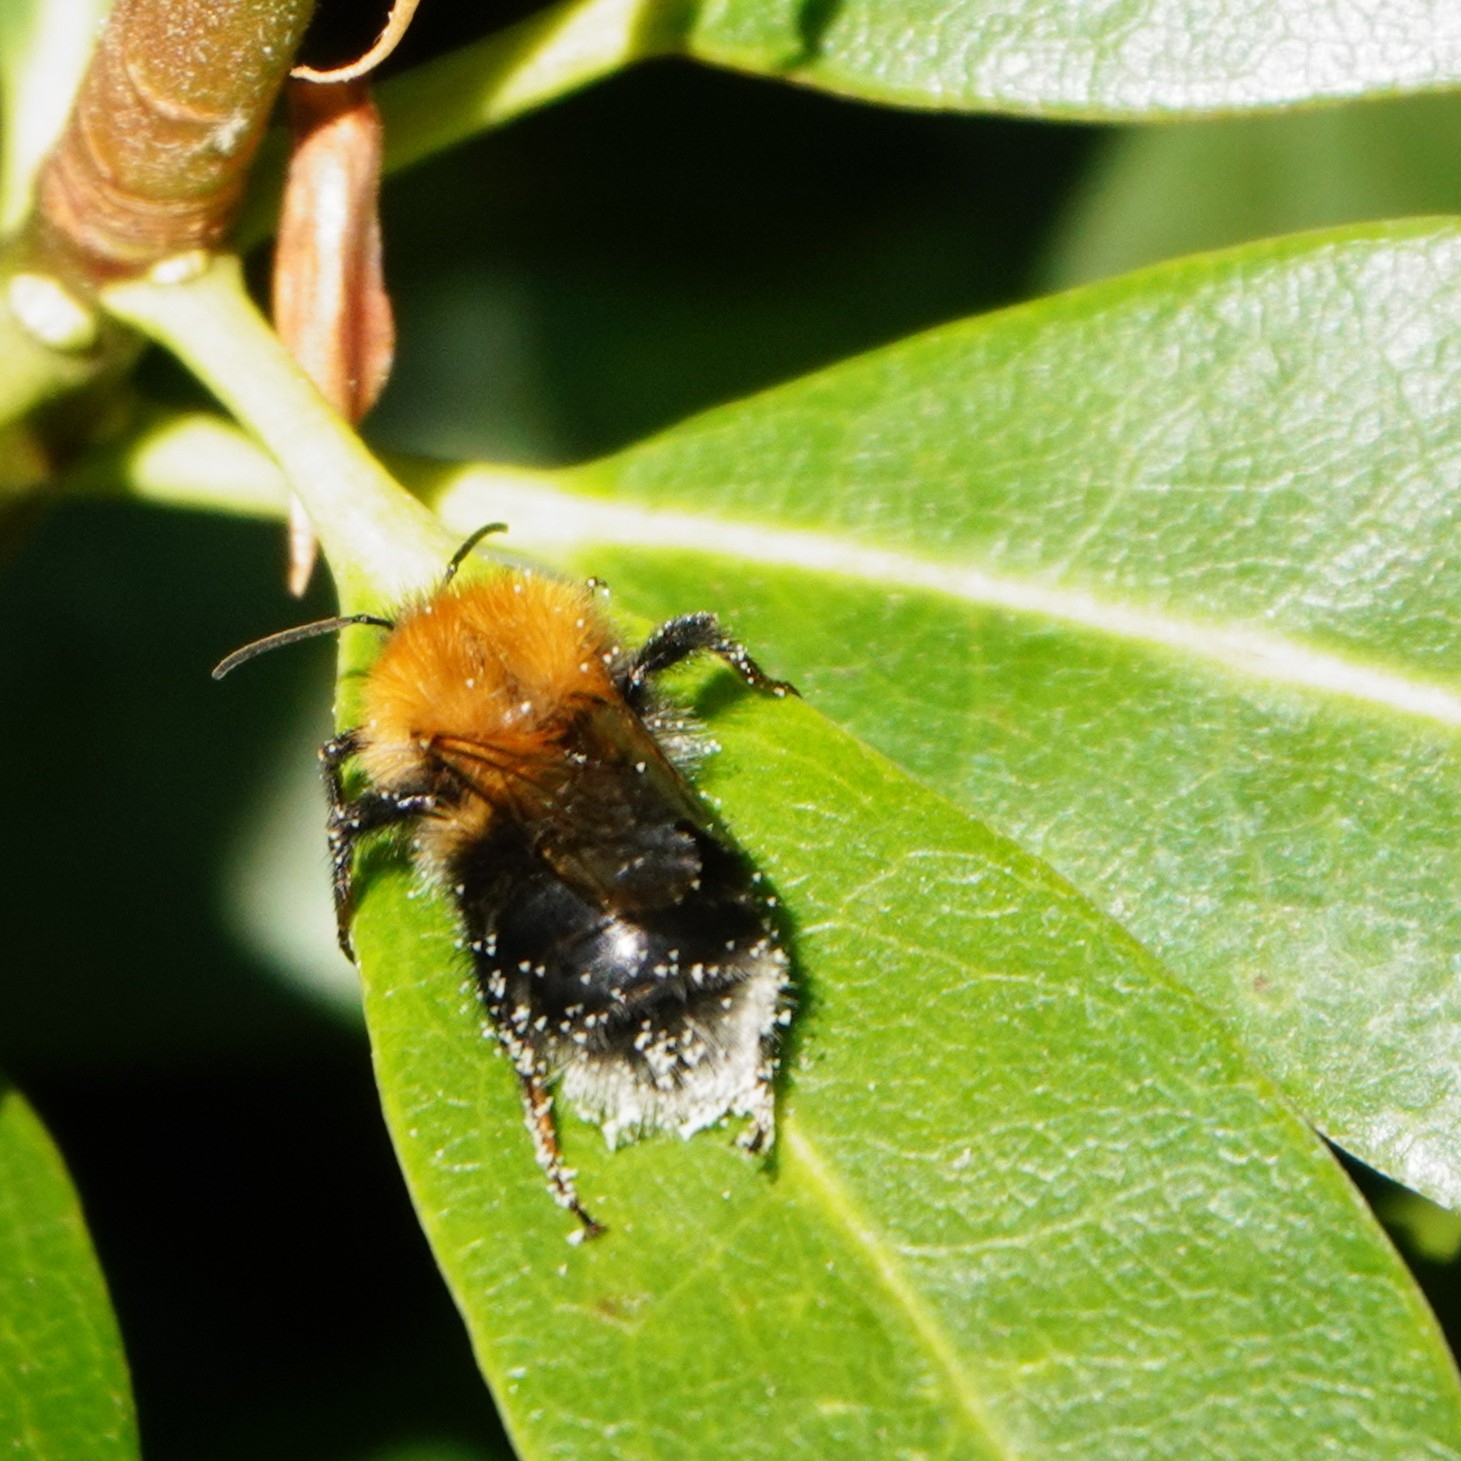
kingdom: Animalia
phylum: Arthropoda
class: Insecta
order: Hymenoptera
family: Apidae
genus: Bombus
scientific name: Bombus hypnorum
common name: New garden bumblebee
